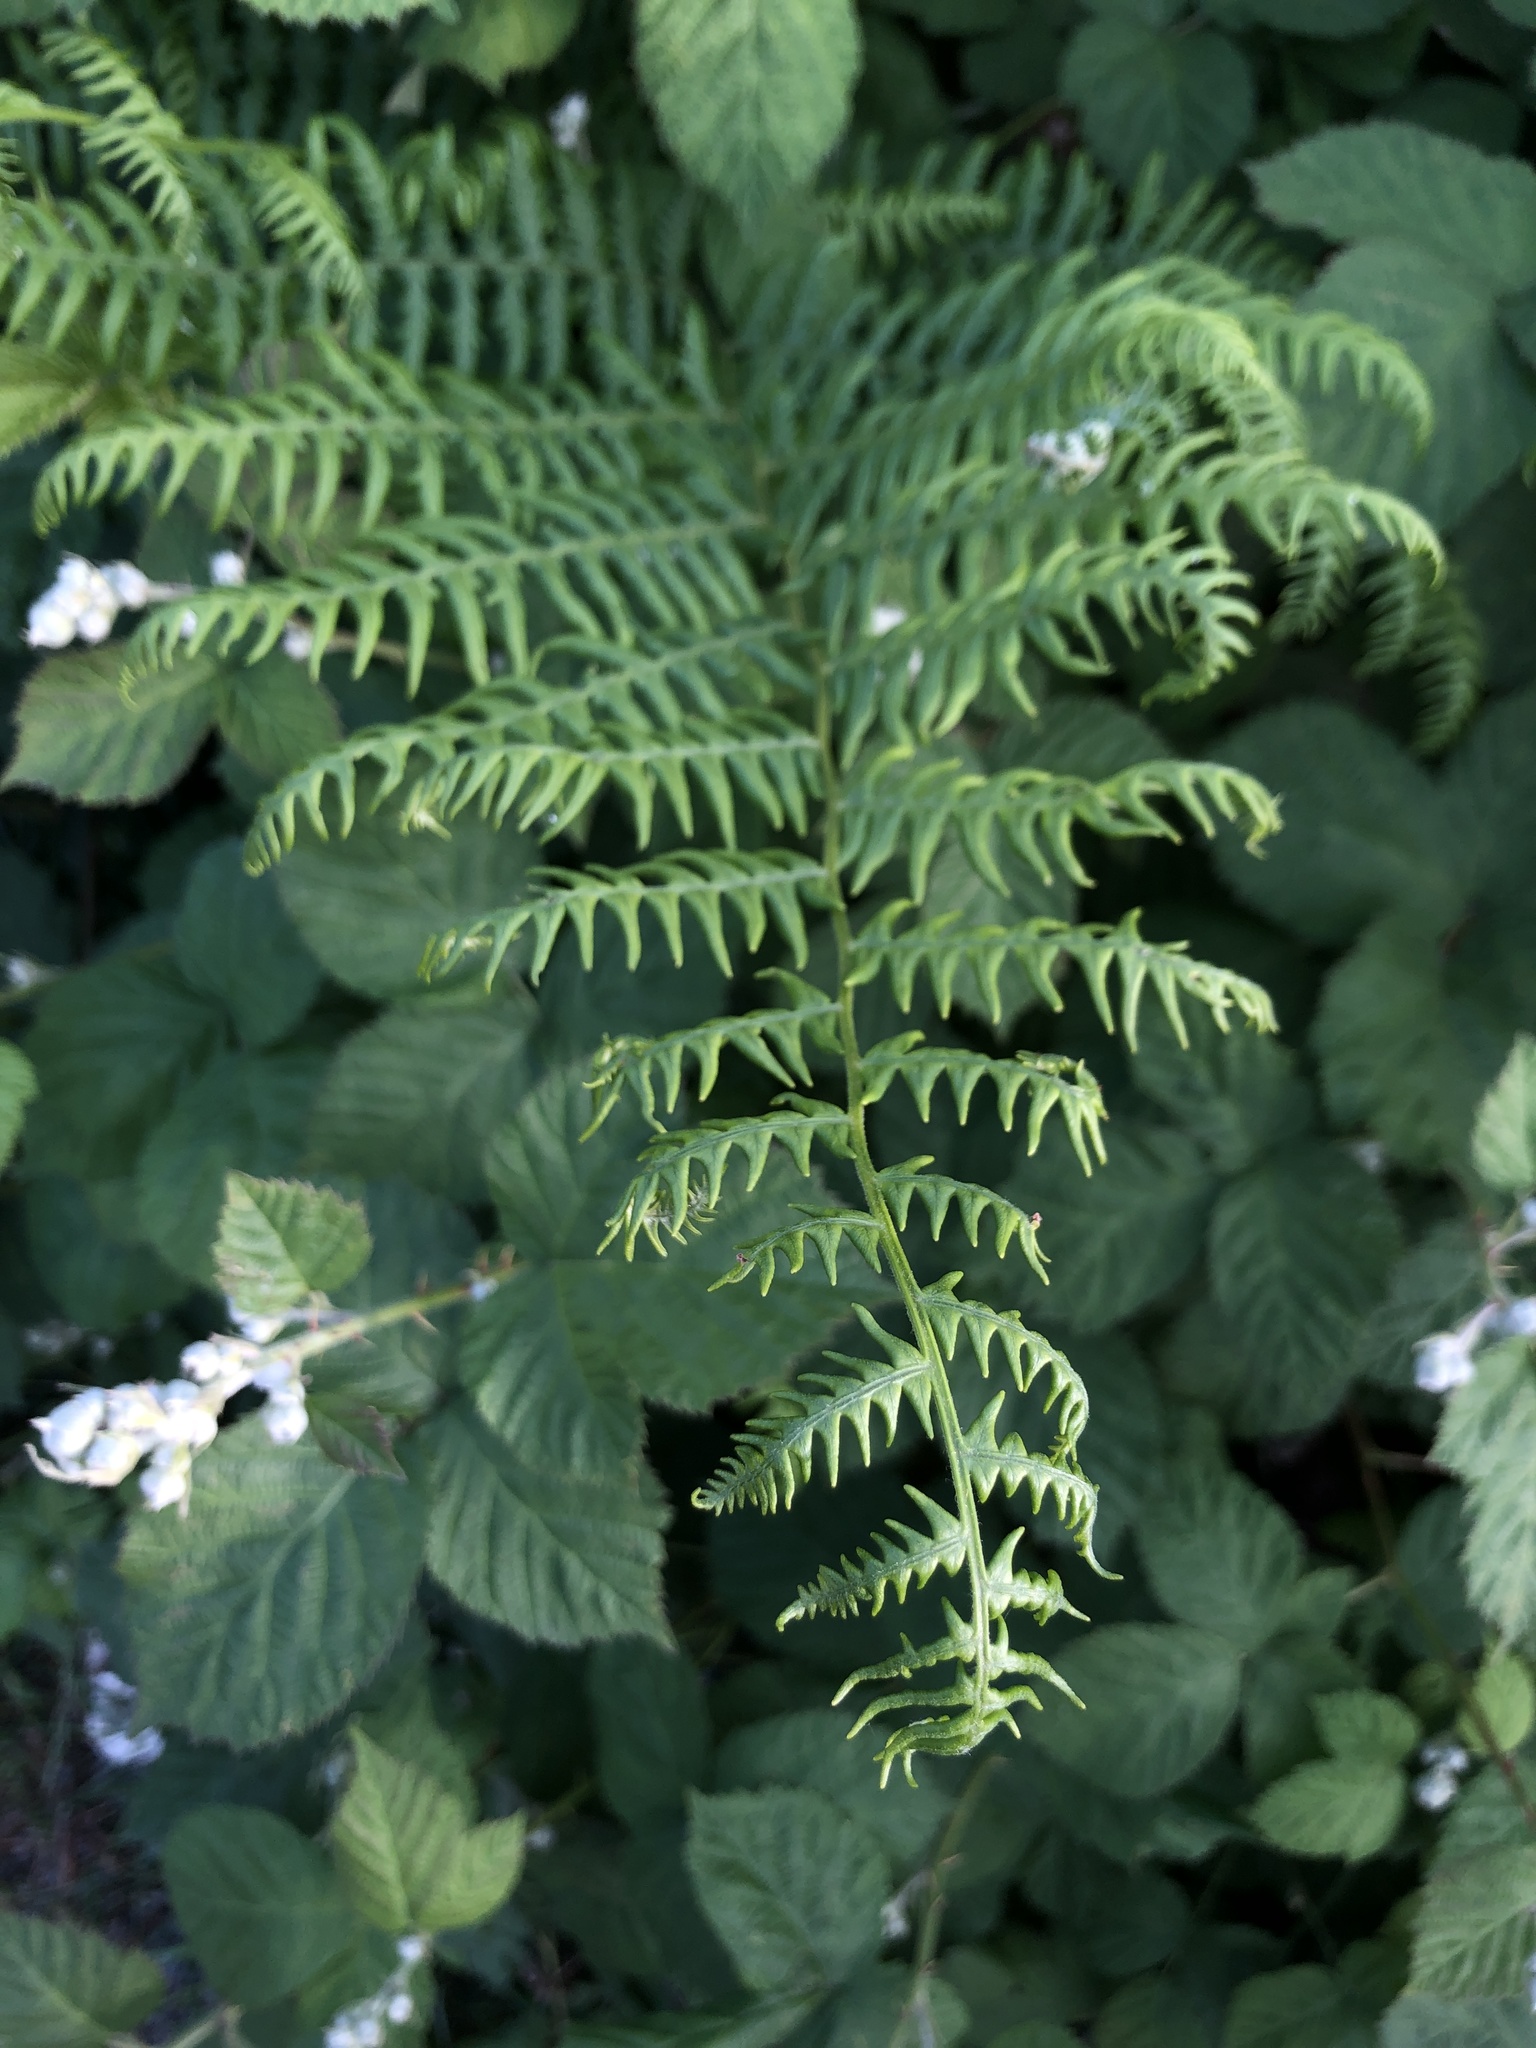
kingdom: Plantae
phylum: Tracheophyta
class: Polypodiopsida
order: Polypodiales
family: Dennstaedtiaceae
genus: Pteridium
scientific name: Pteridium aquilinum
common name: Bracken
